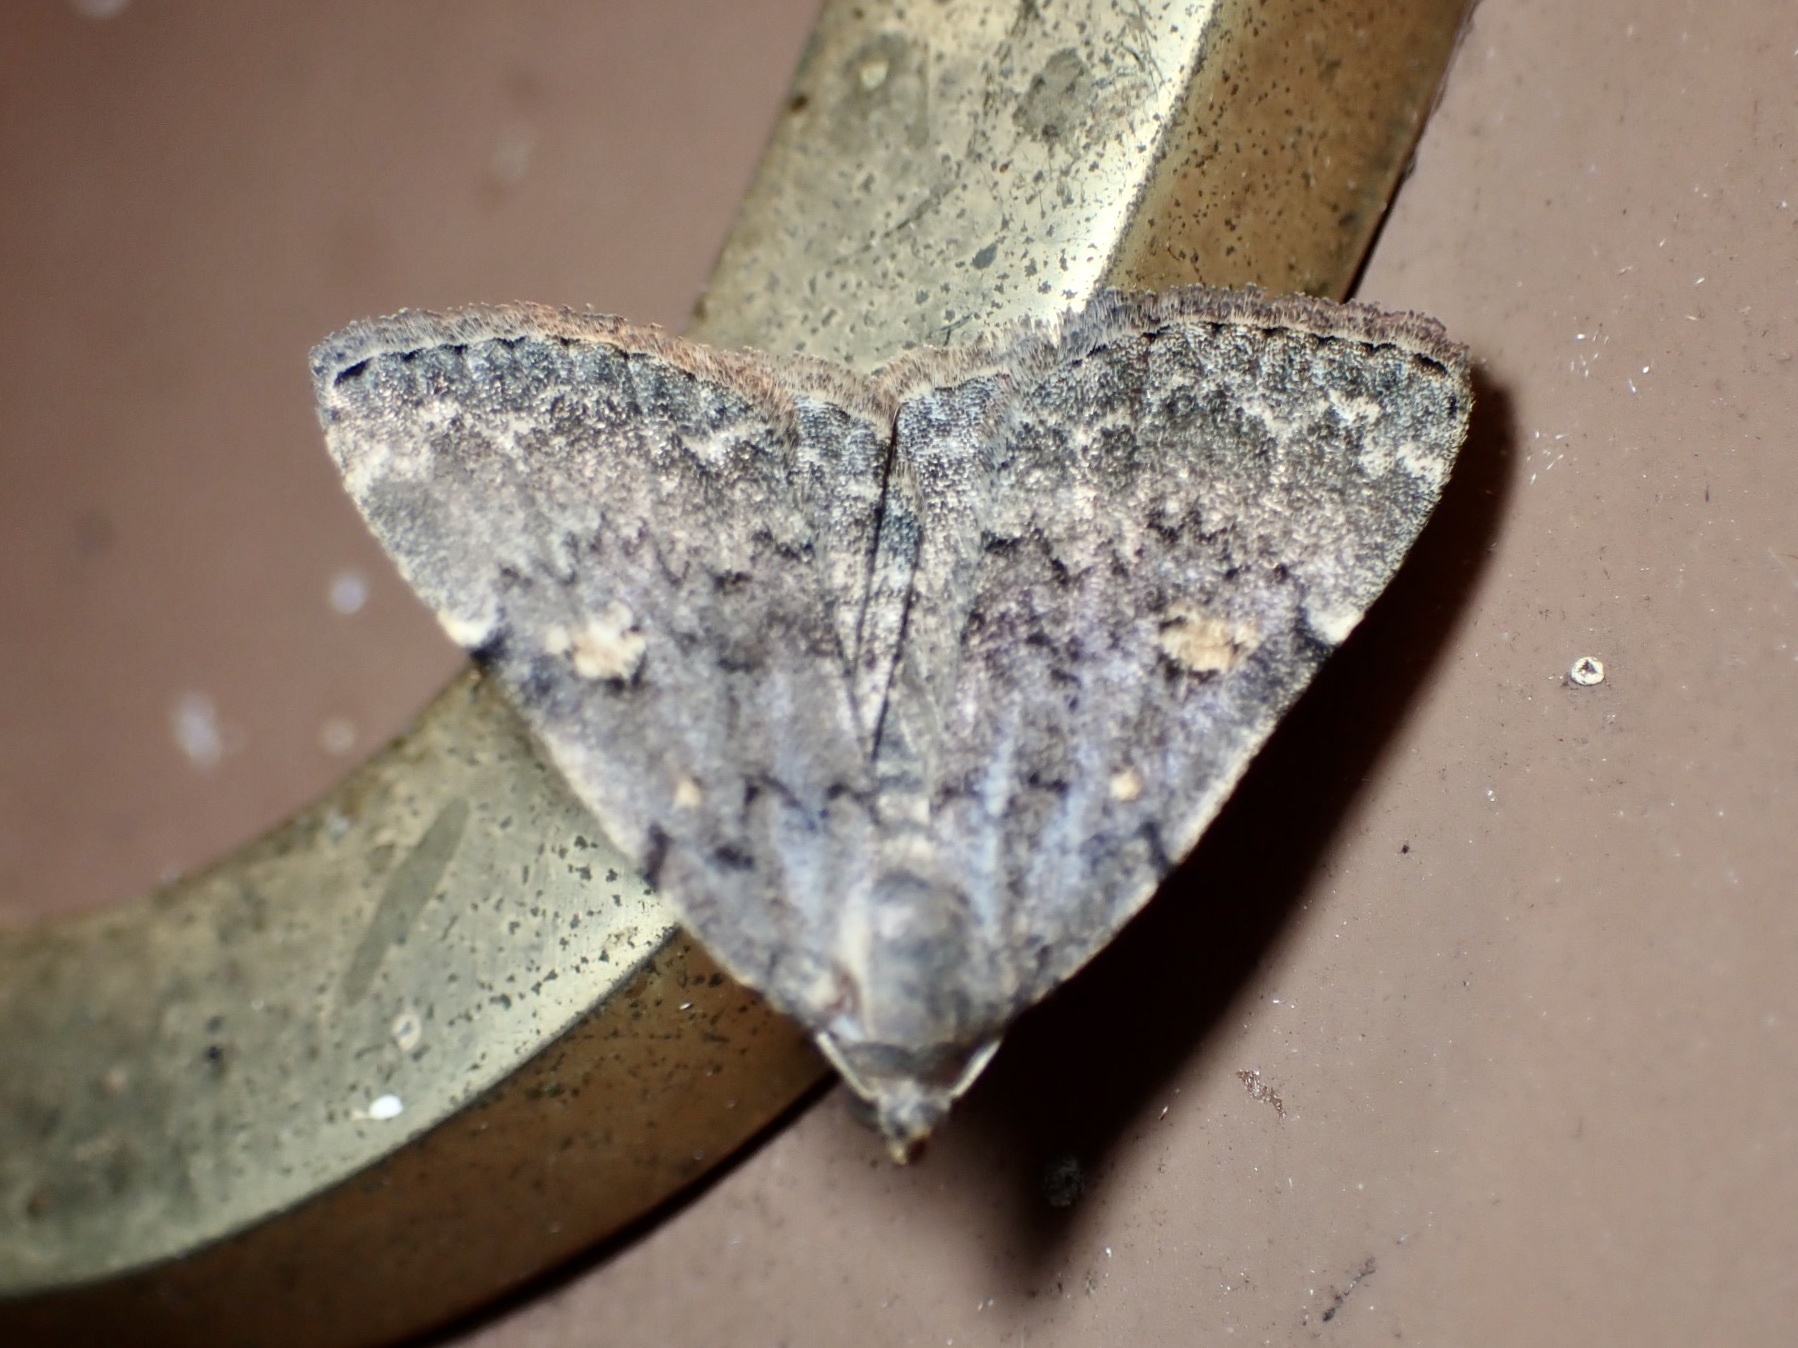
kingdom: Animalia
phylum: Arthropoda
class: Insecta
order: Lepidoptera
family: Erebidae
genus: Idia
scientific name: Idia aemula
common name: Common idia moth
